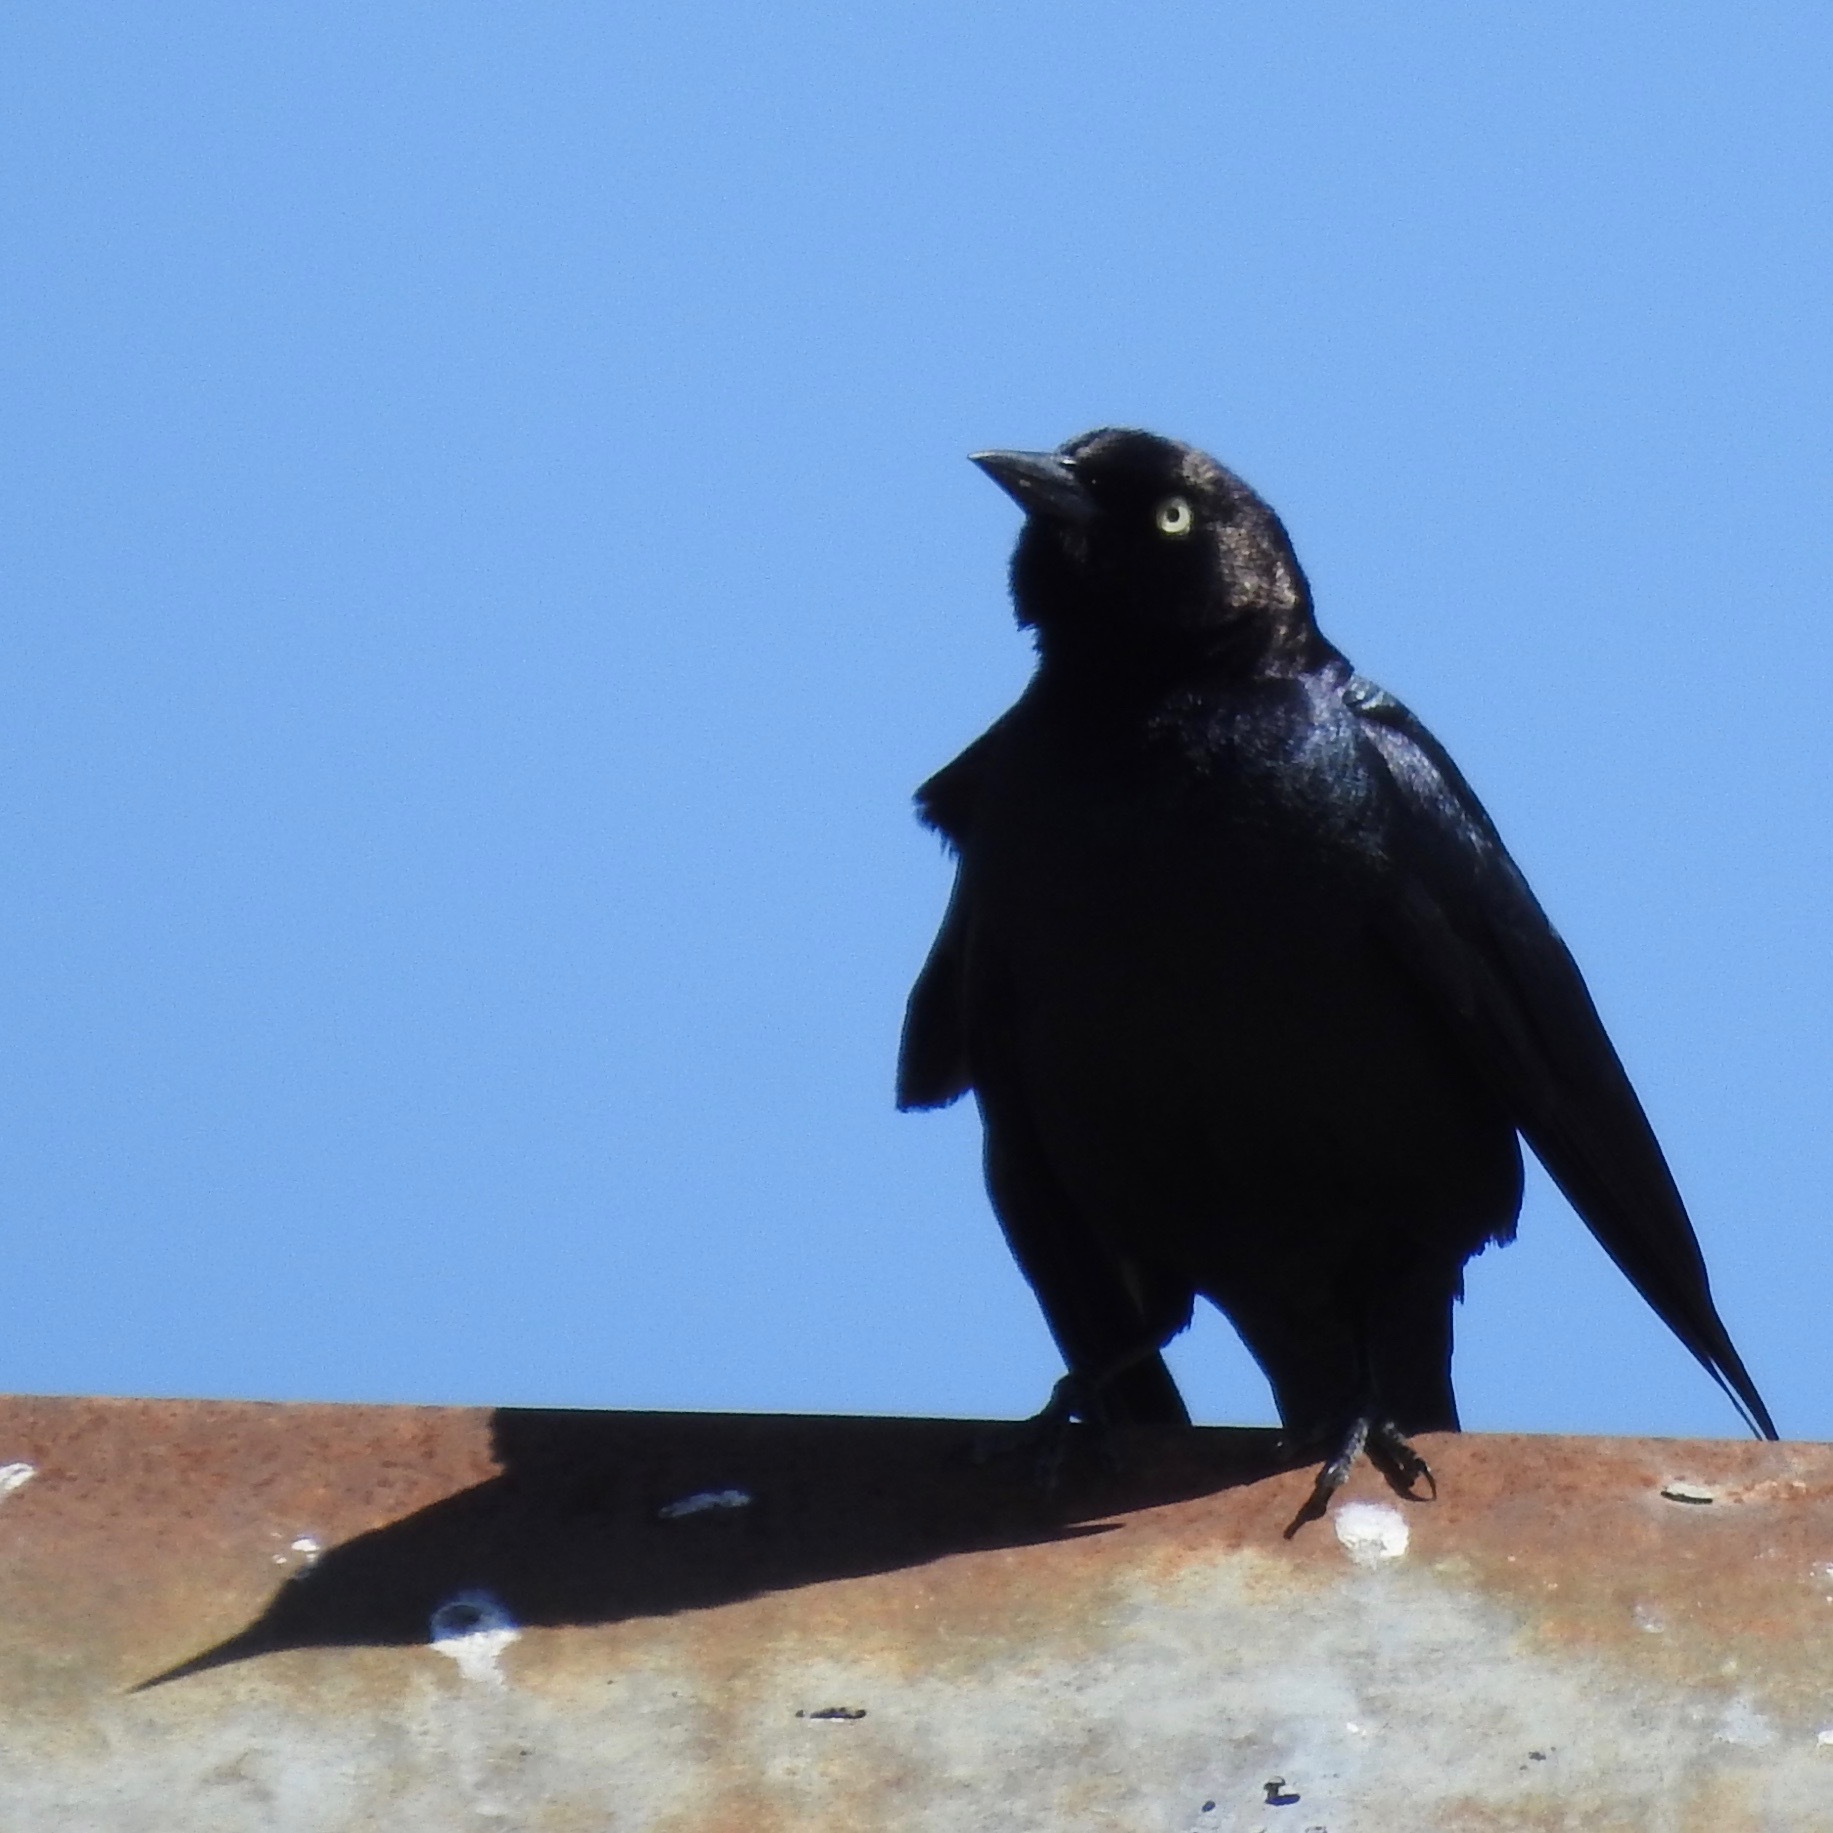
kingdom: Animalia
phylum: Chordata
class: Aves
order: Passeriformes
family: Icteridae
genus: Euphagus
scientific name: Euphagus cyanocephalus
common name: Brewer's blackbird
